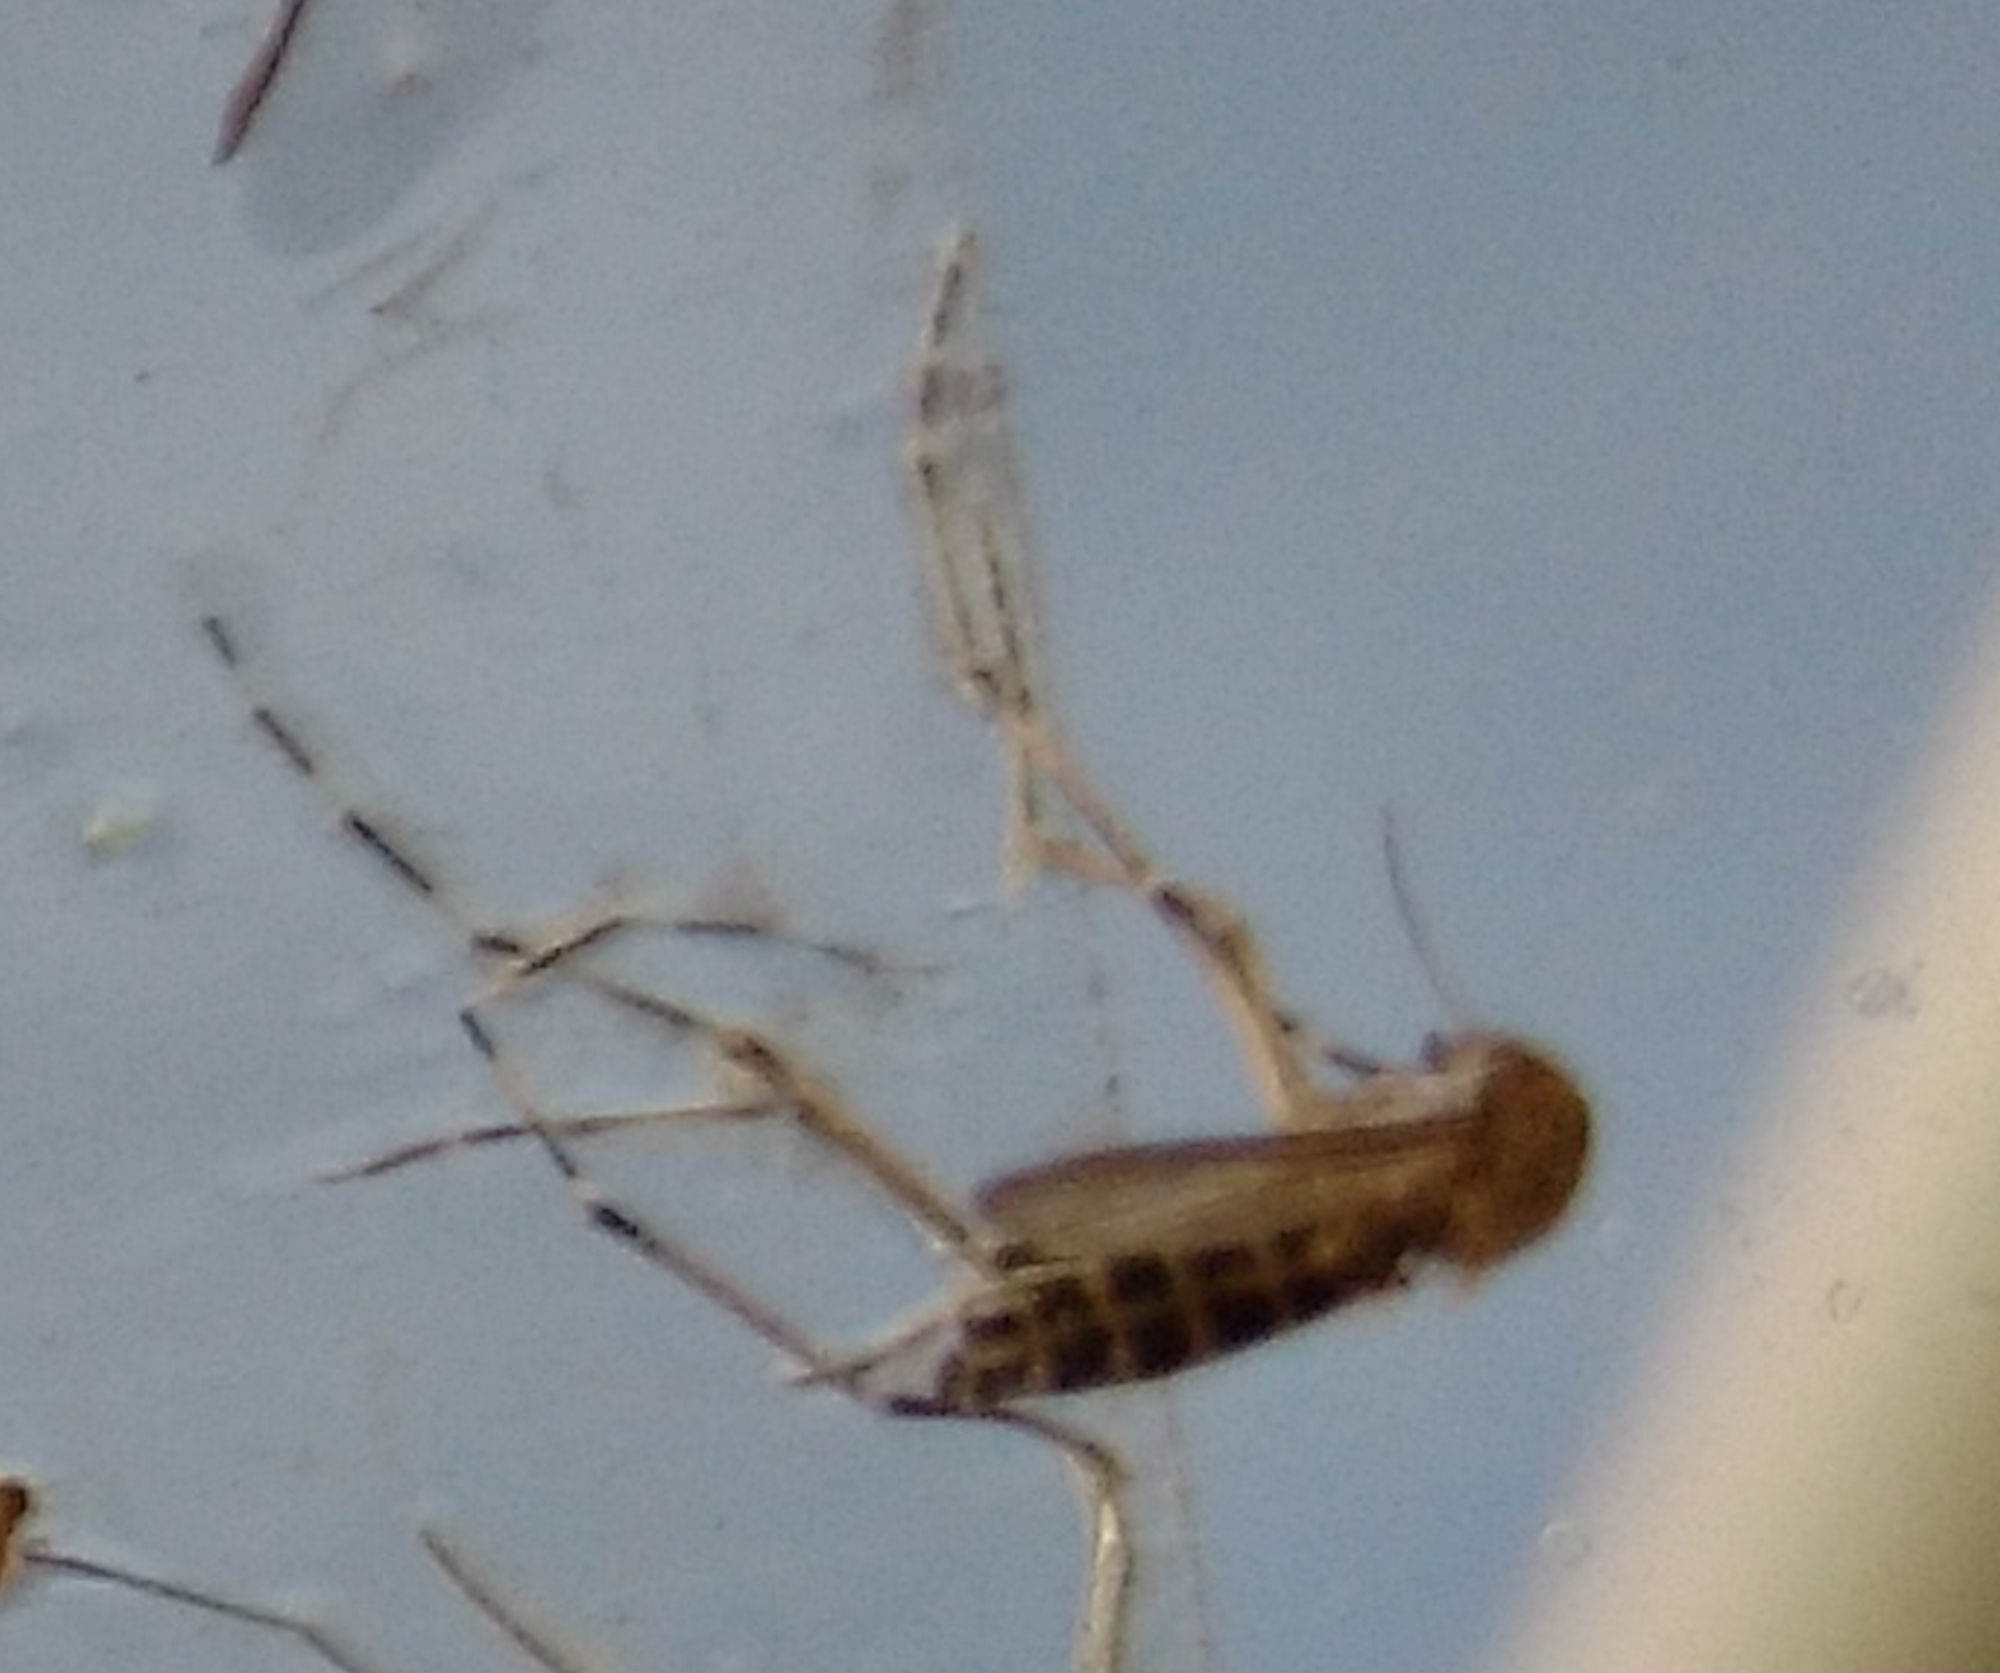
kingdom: Animalia
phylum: Arthropoda
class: Insecta
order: Diptera
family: Culicidae
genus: Aedes
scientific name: Aedes sollicitans
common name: Saltmarsh mosquito
